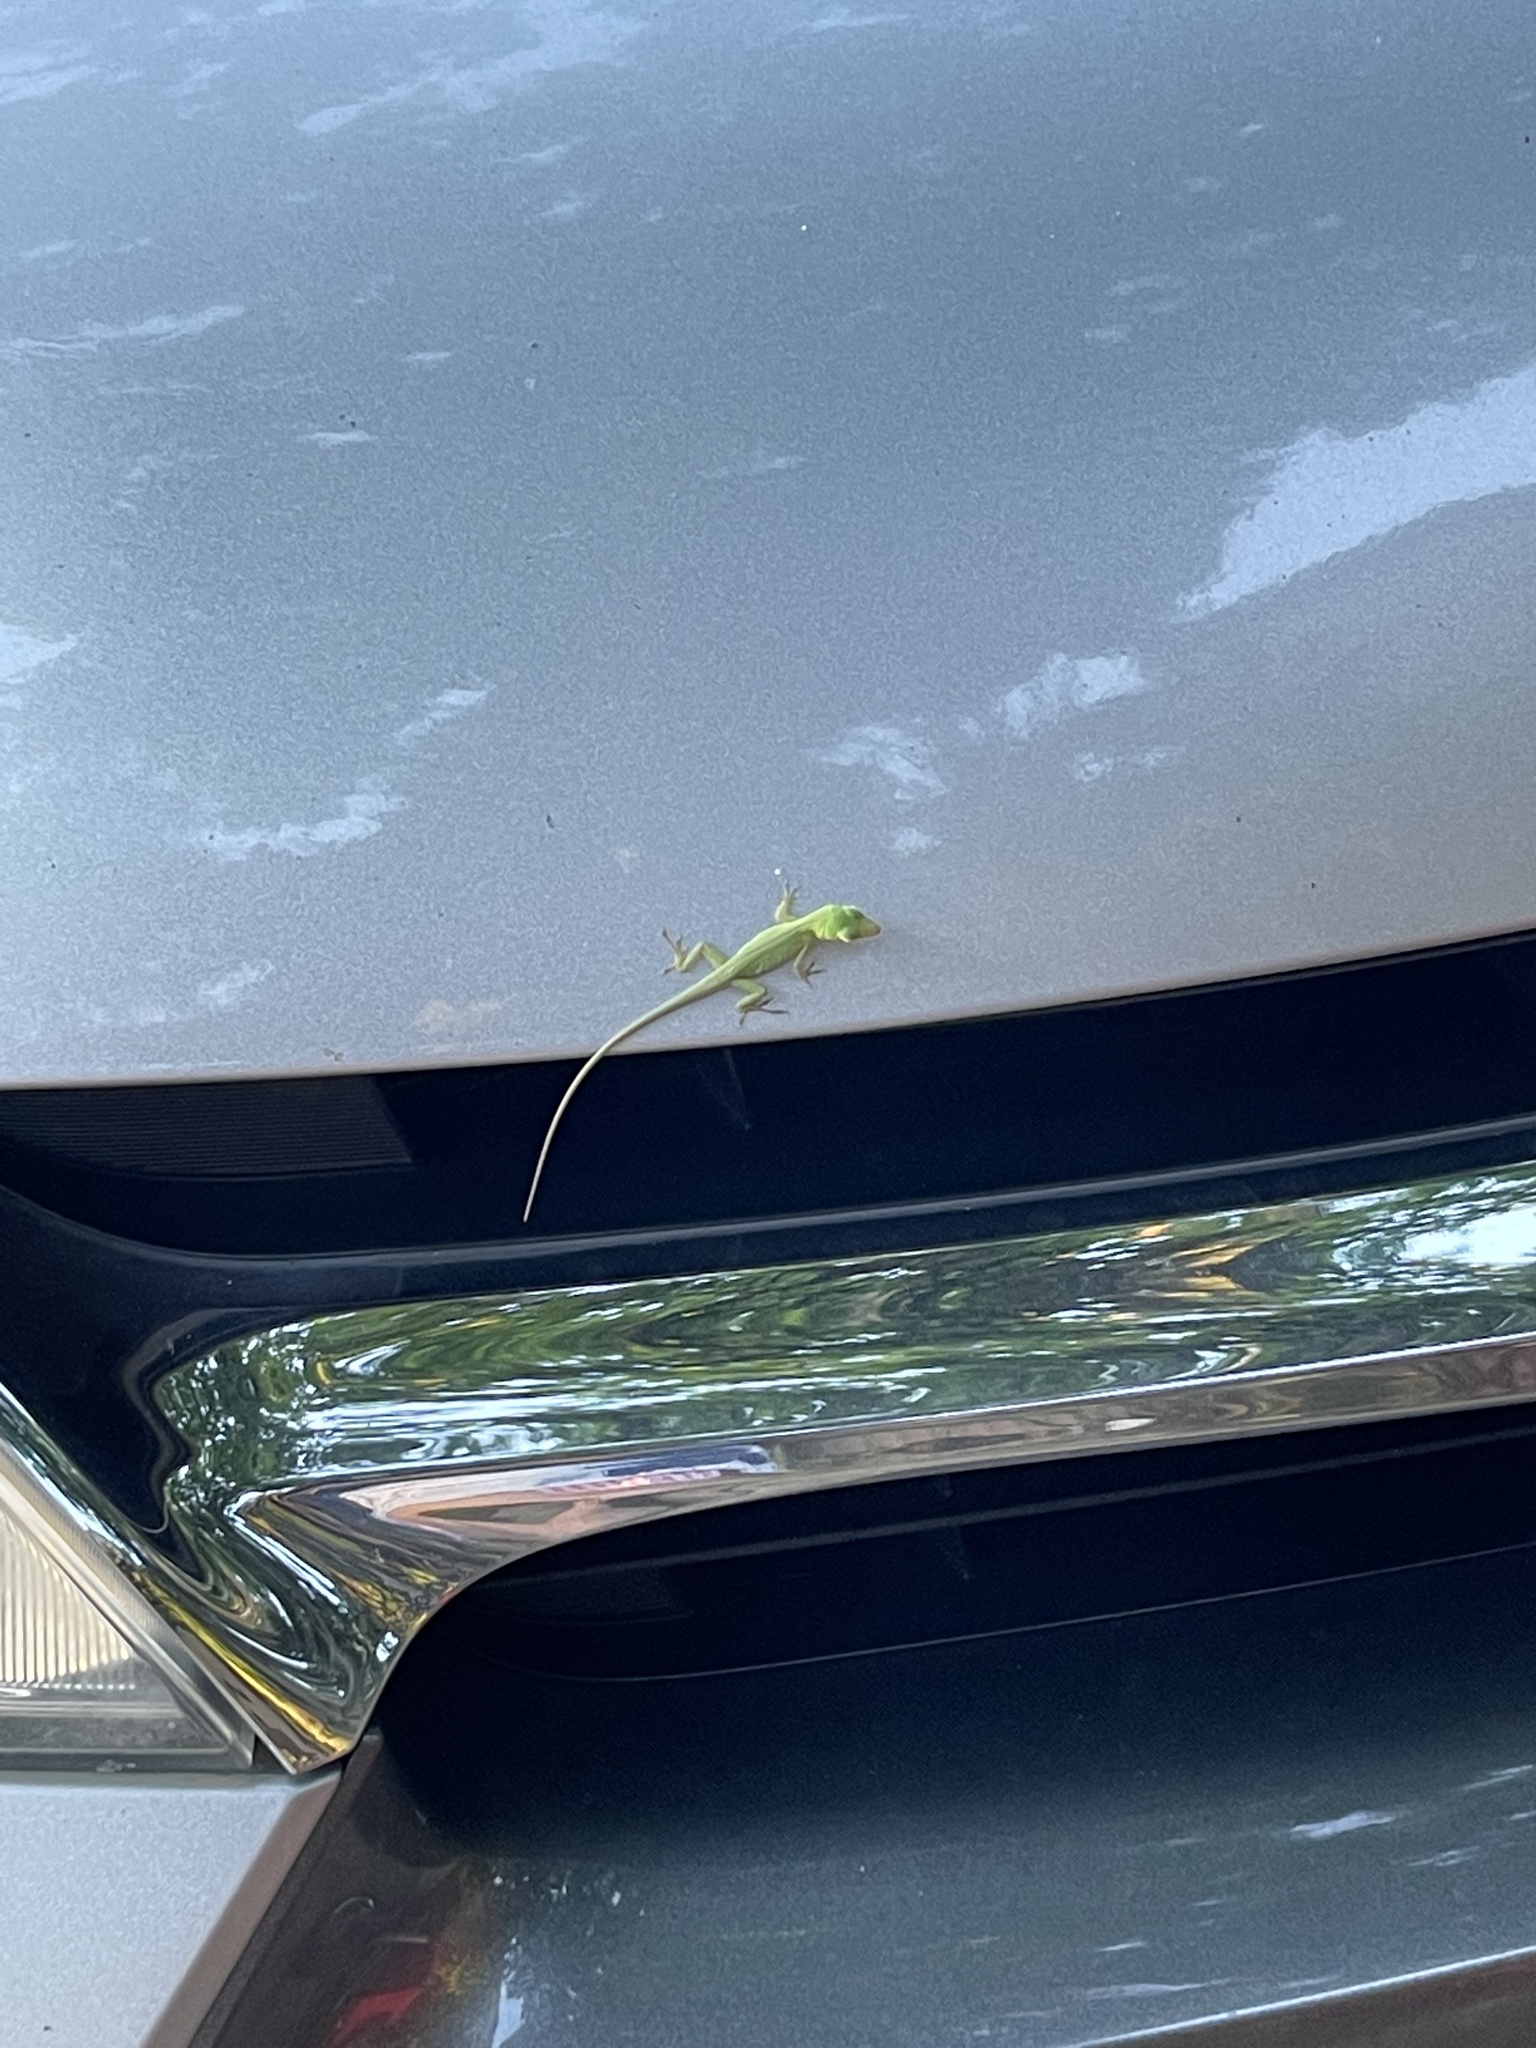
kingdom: Animalia
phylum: Chordata
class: Squamata
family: Dactyloidae
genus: Anolis
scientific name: Anolis carolinensis
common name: Green anole
